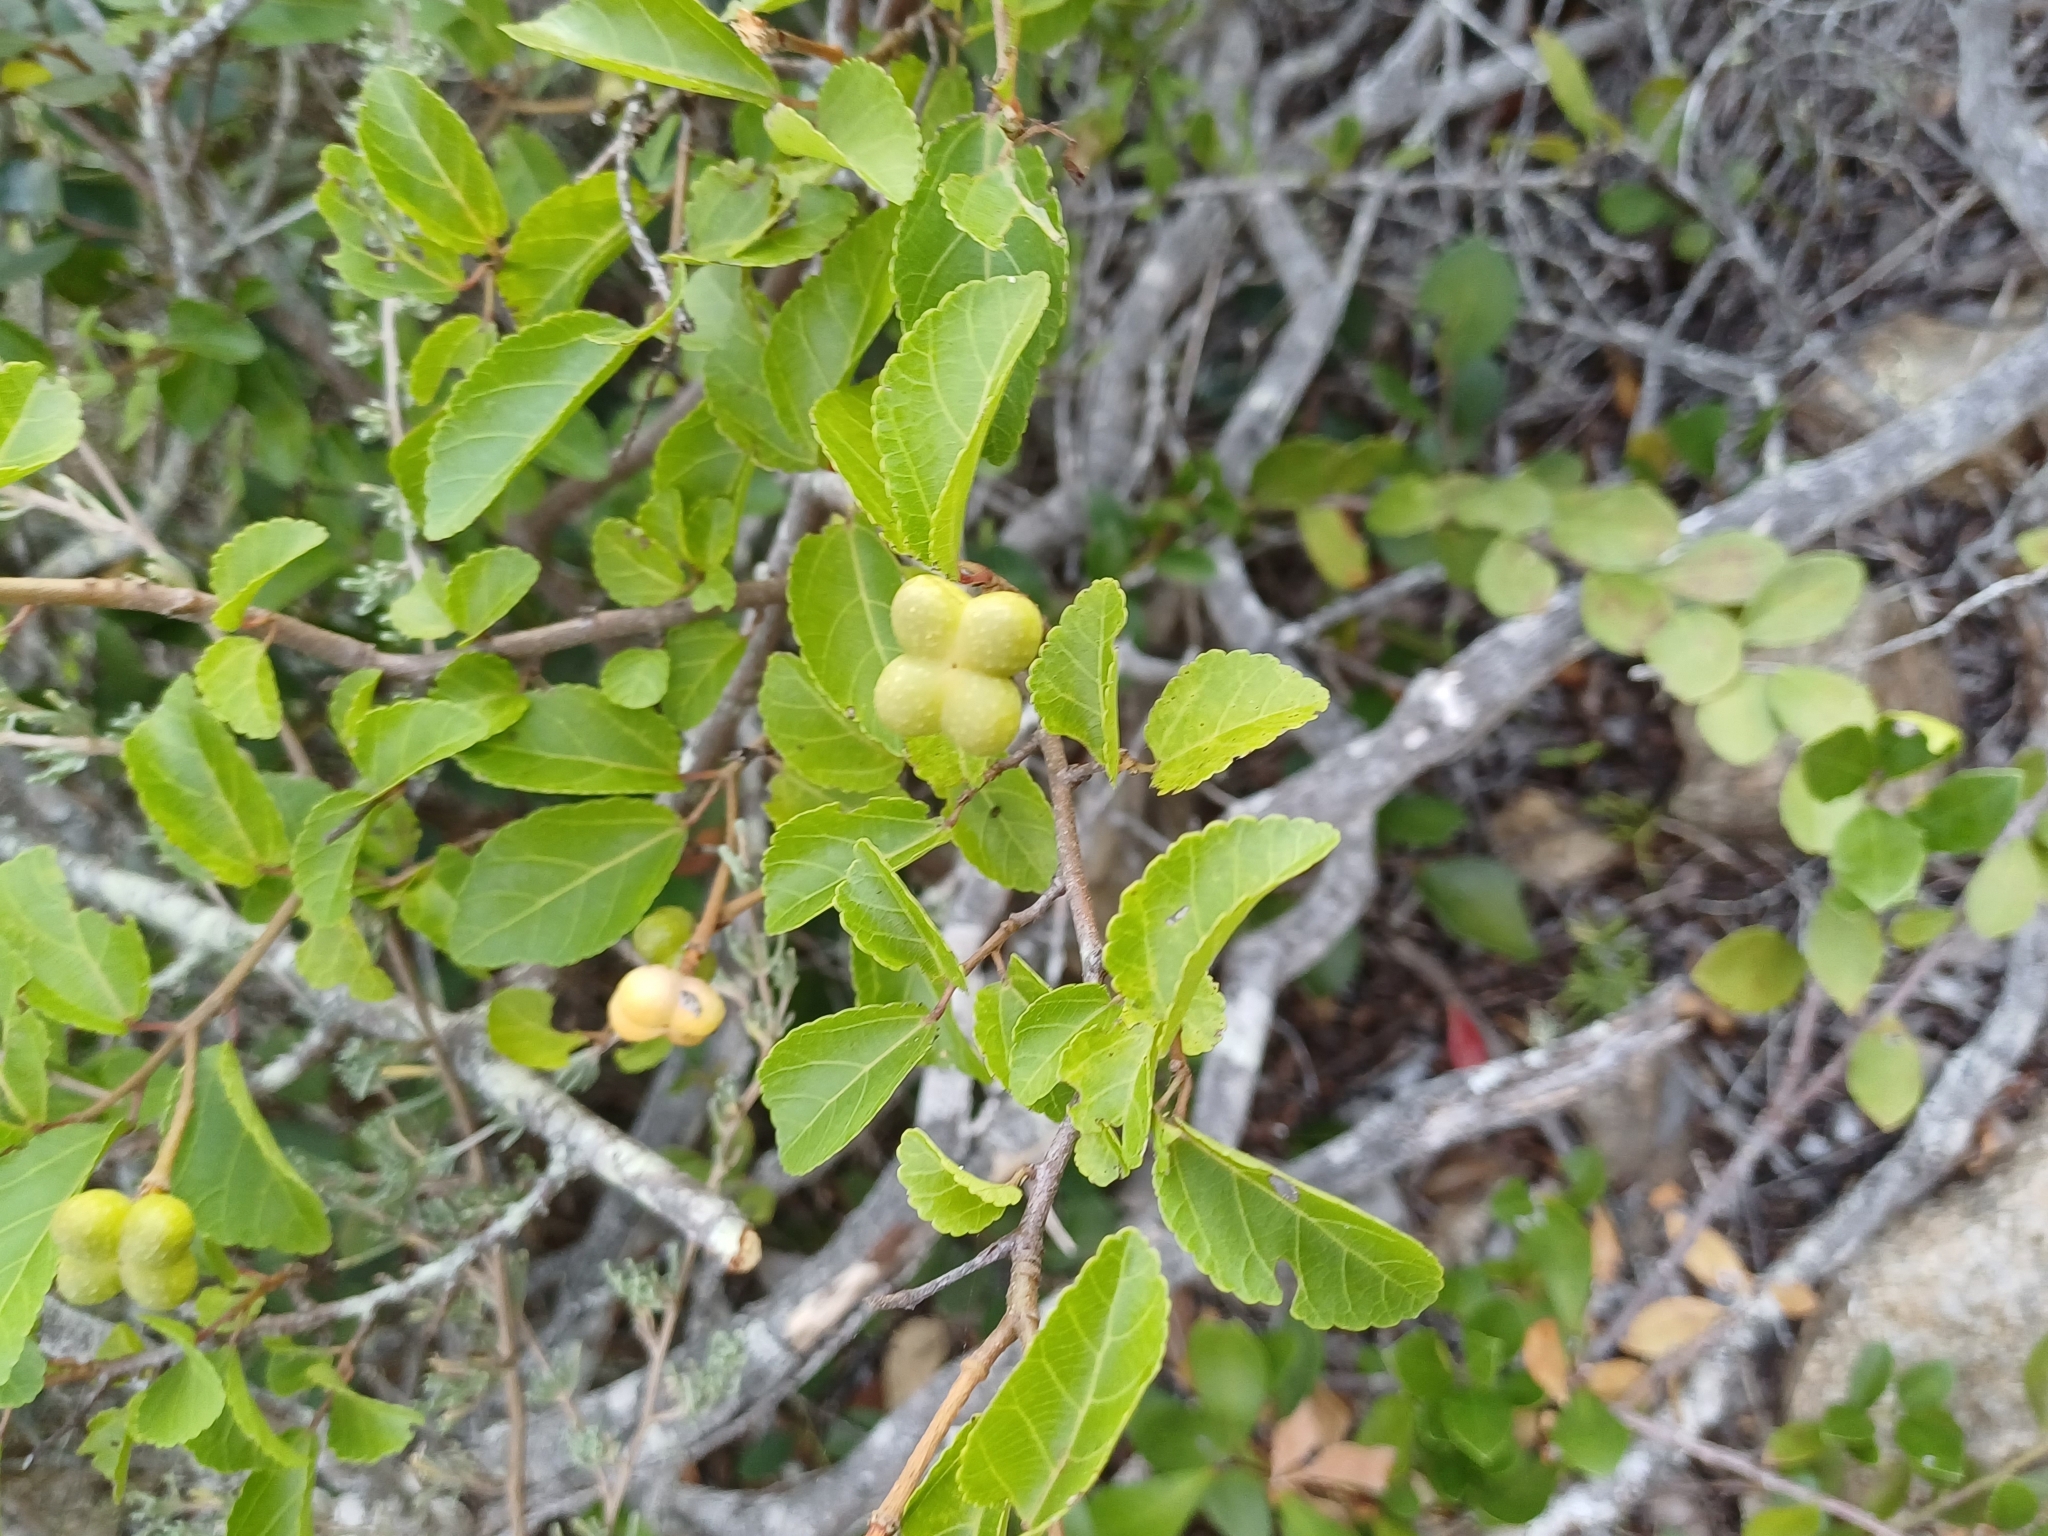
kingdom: Plantae
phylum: Tracheophyta
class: Magnoliopsida
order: Malvales
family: Malvaceae
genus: Grewia
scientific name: Grewia occidentalis
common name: Crossberry
